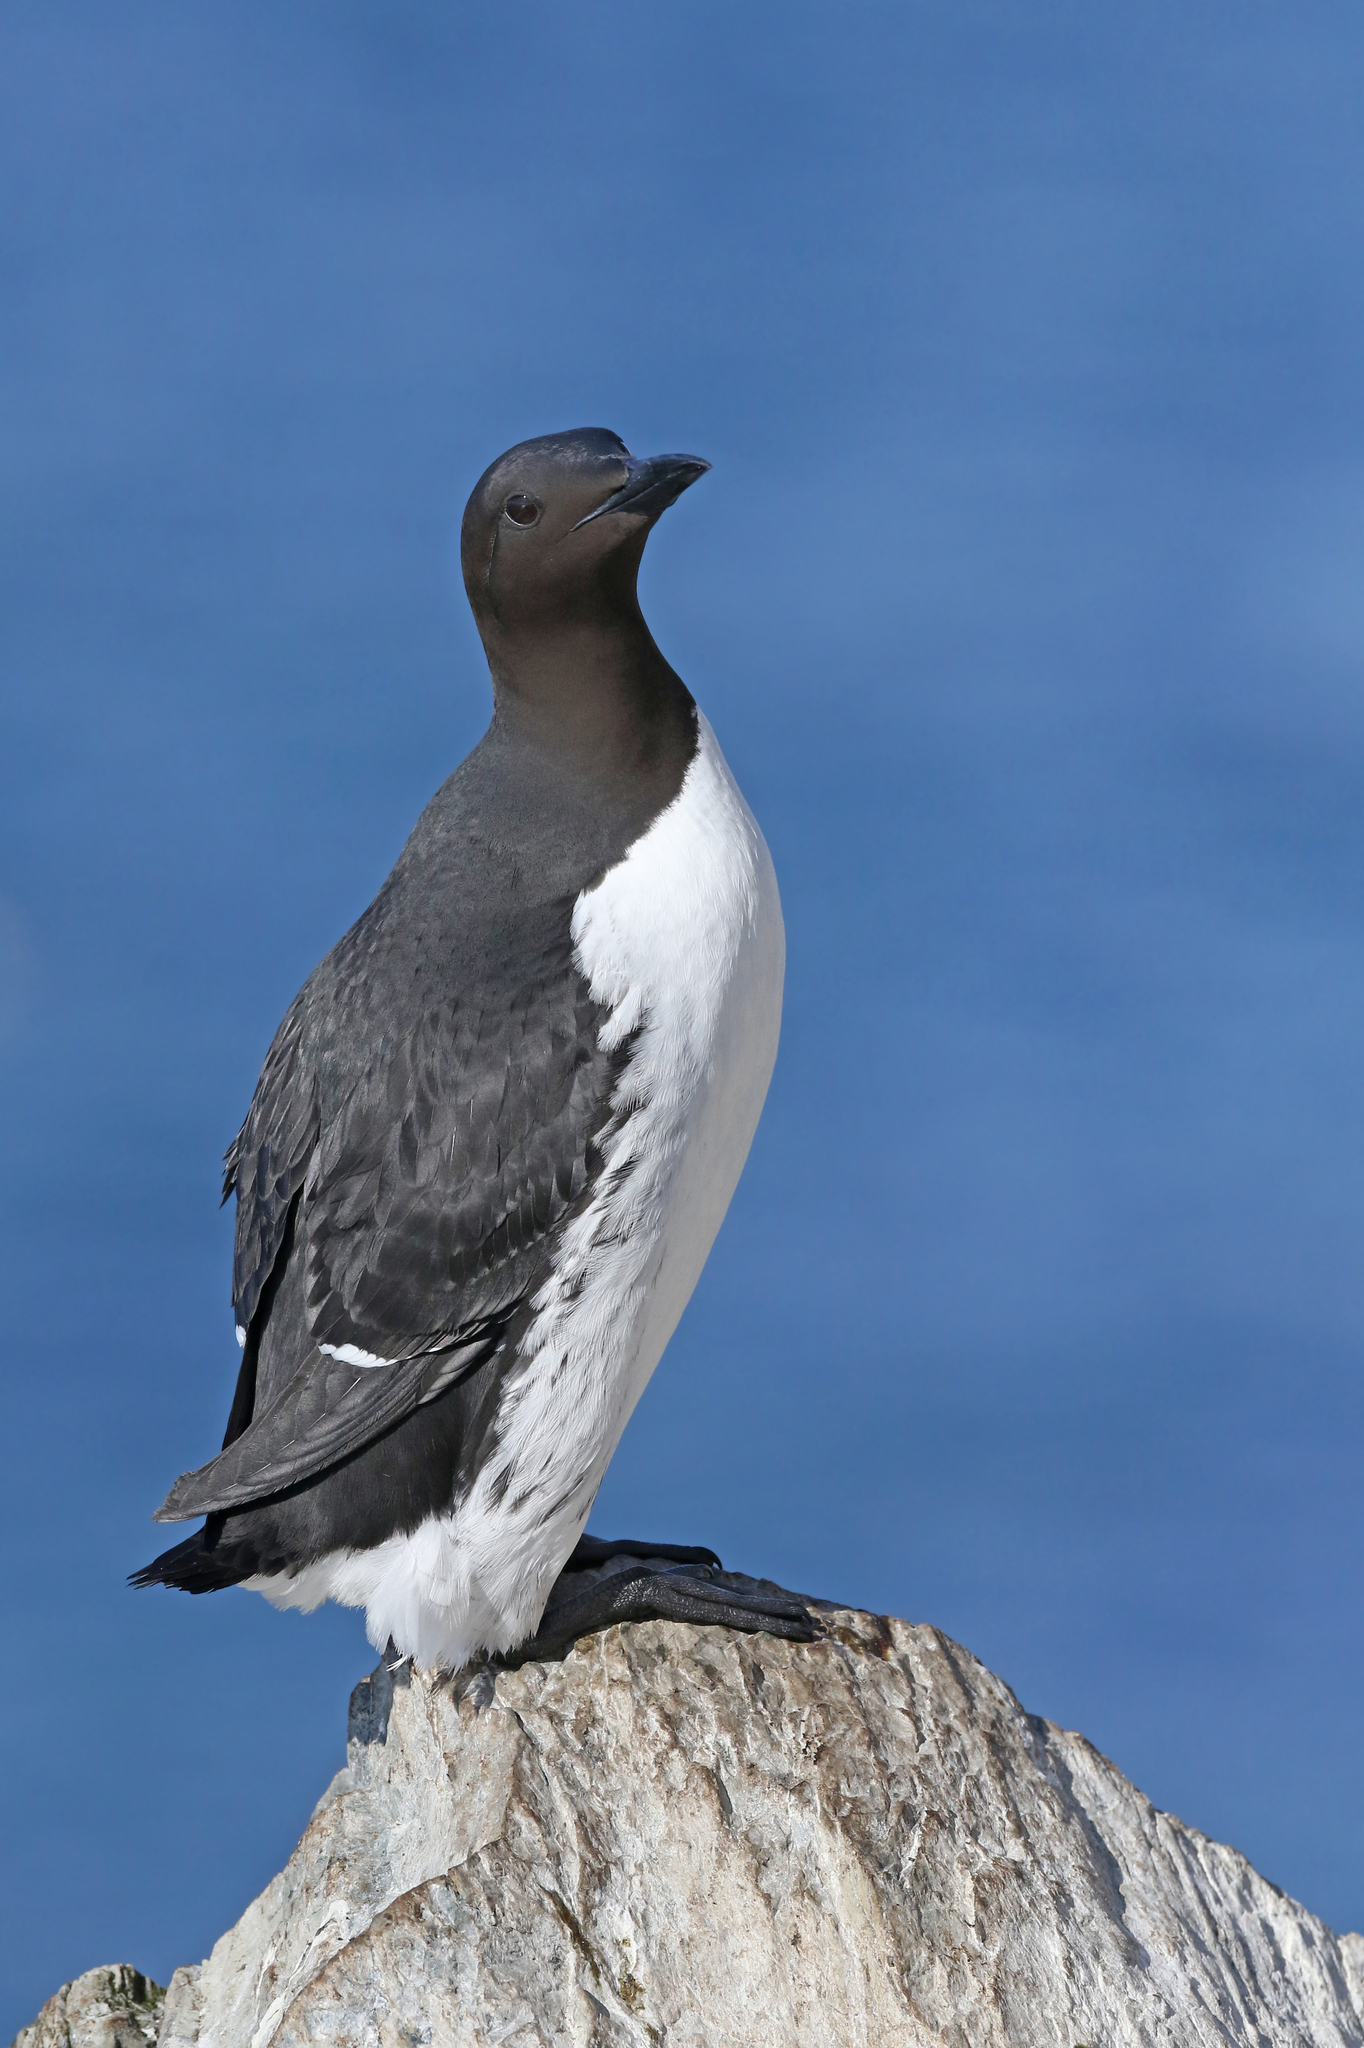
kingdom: Animalia
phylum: Chordata
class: Aves
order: Charadriiformes
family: Alcidae
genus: Uria
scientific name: Uria aalge
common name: Common murre
